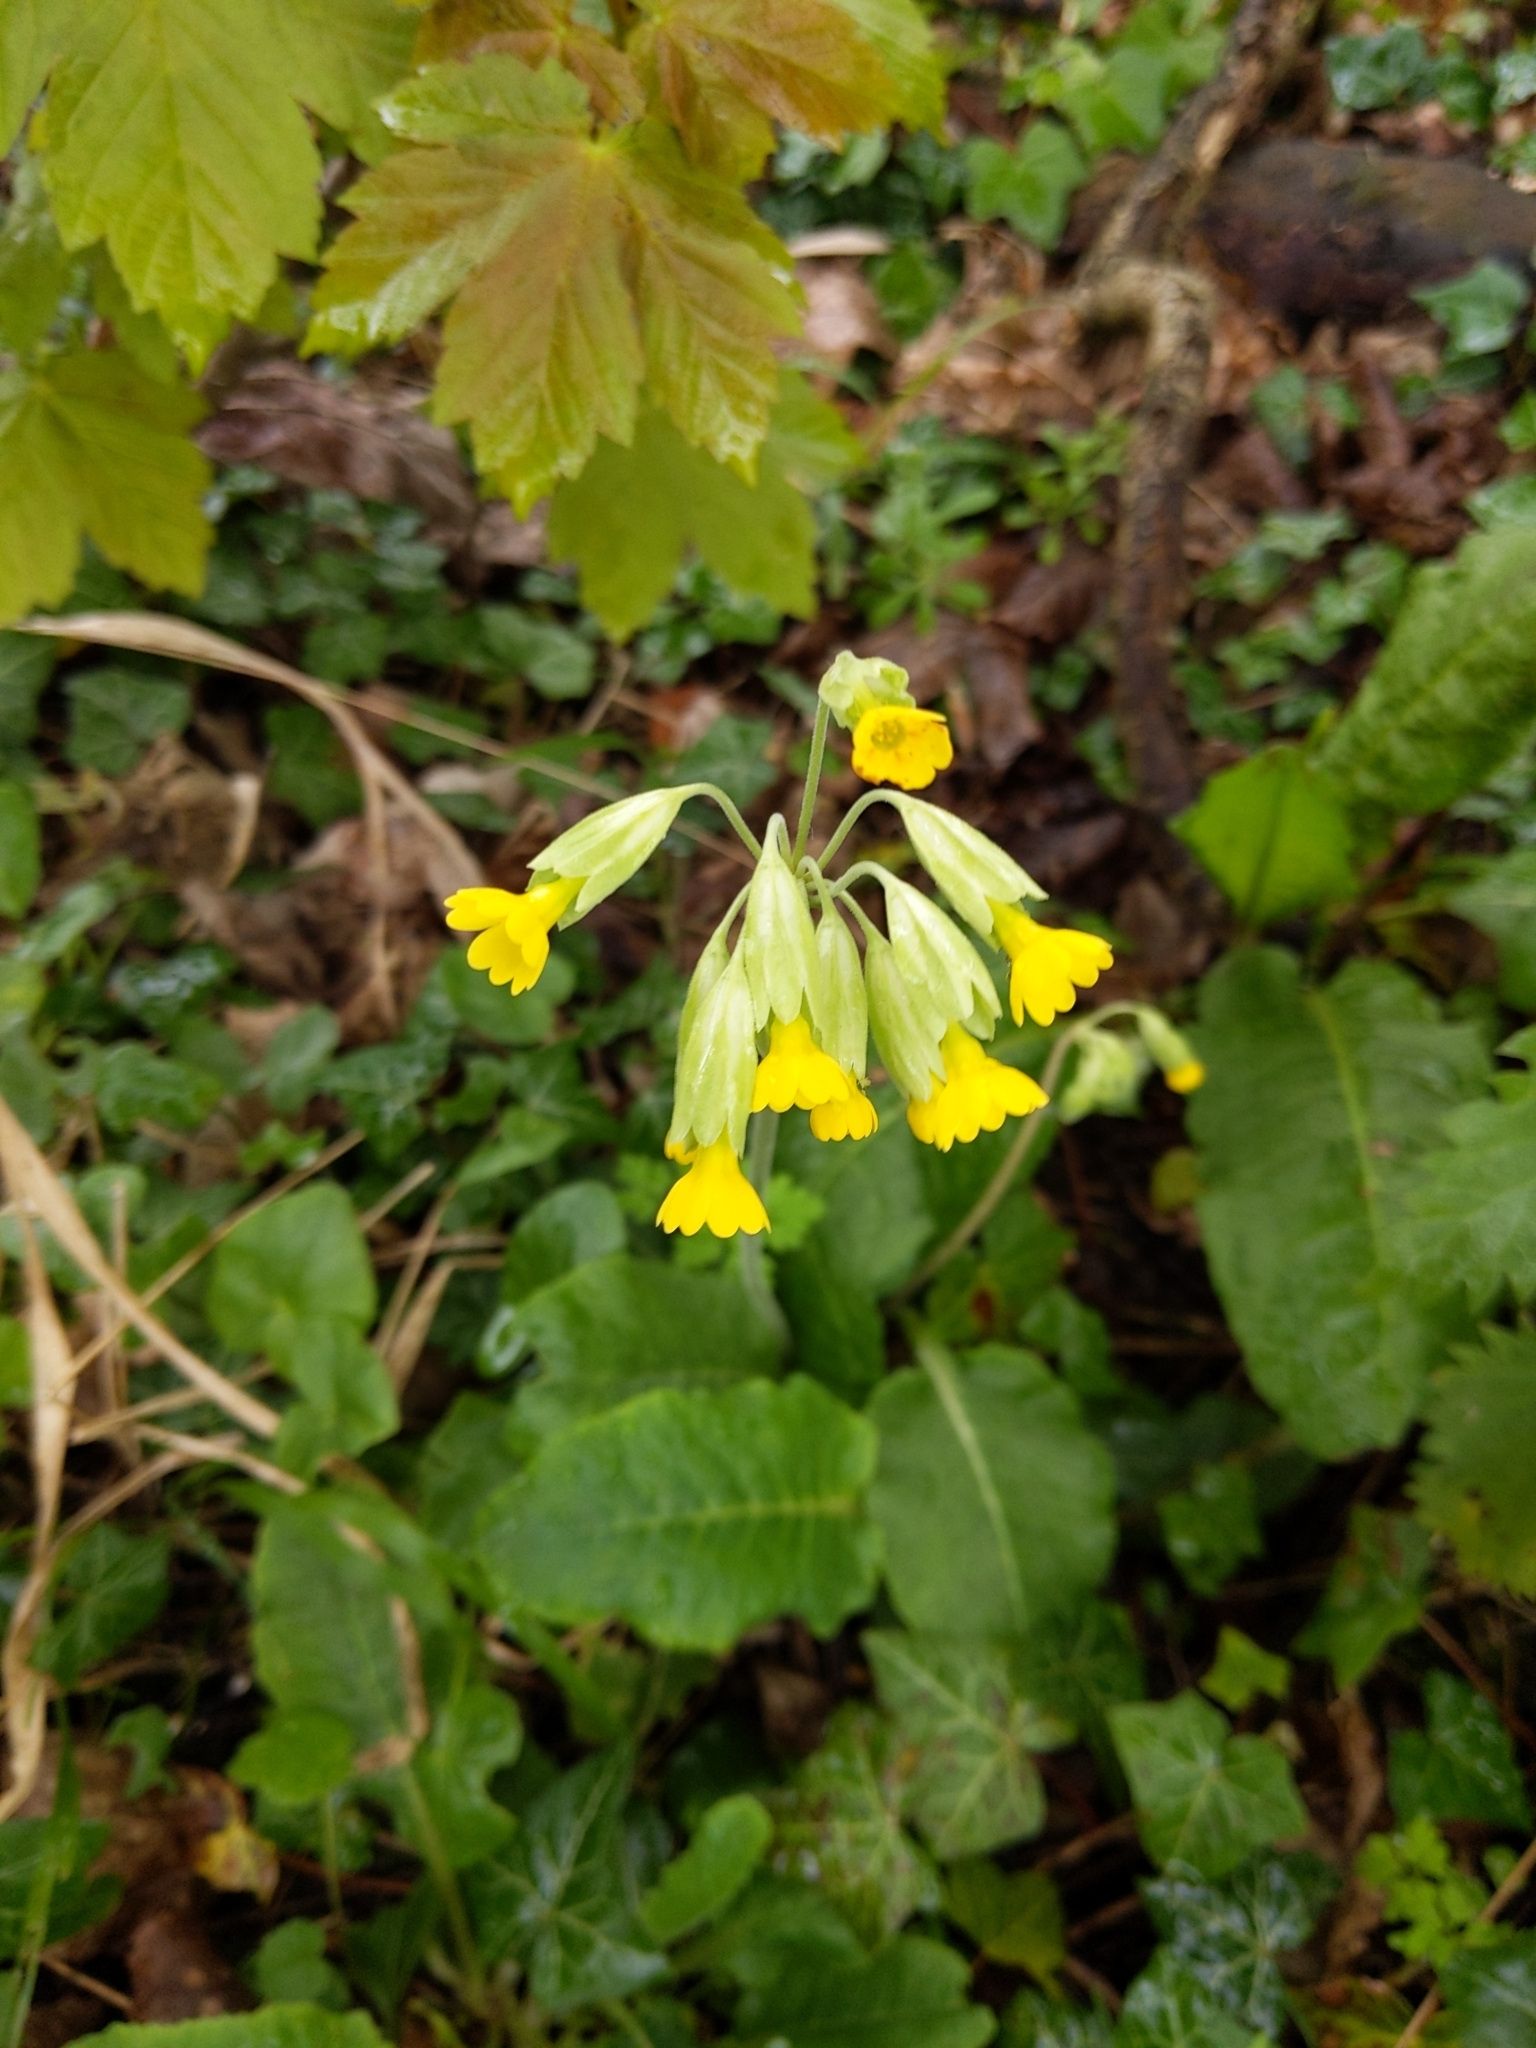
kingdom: Plantae
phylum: Tracheophyta
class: Magnoliopsida
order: Ericales
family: Primulaceae
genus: Primula
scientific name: Primula veris
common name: Cowslip
